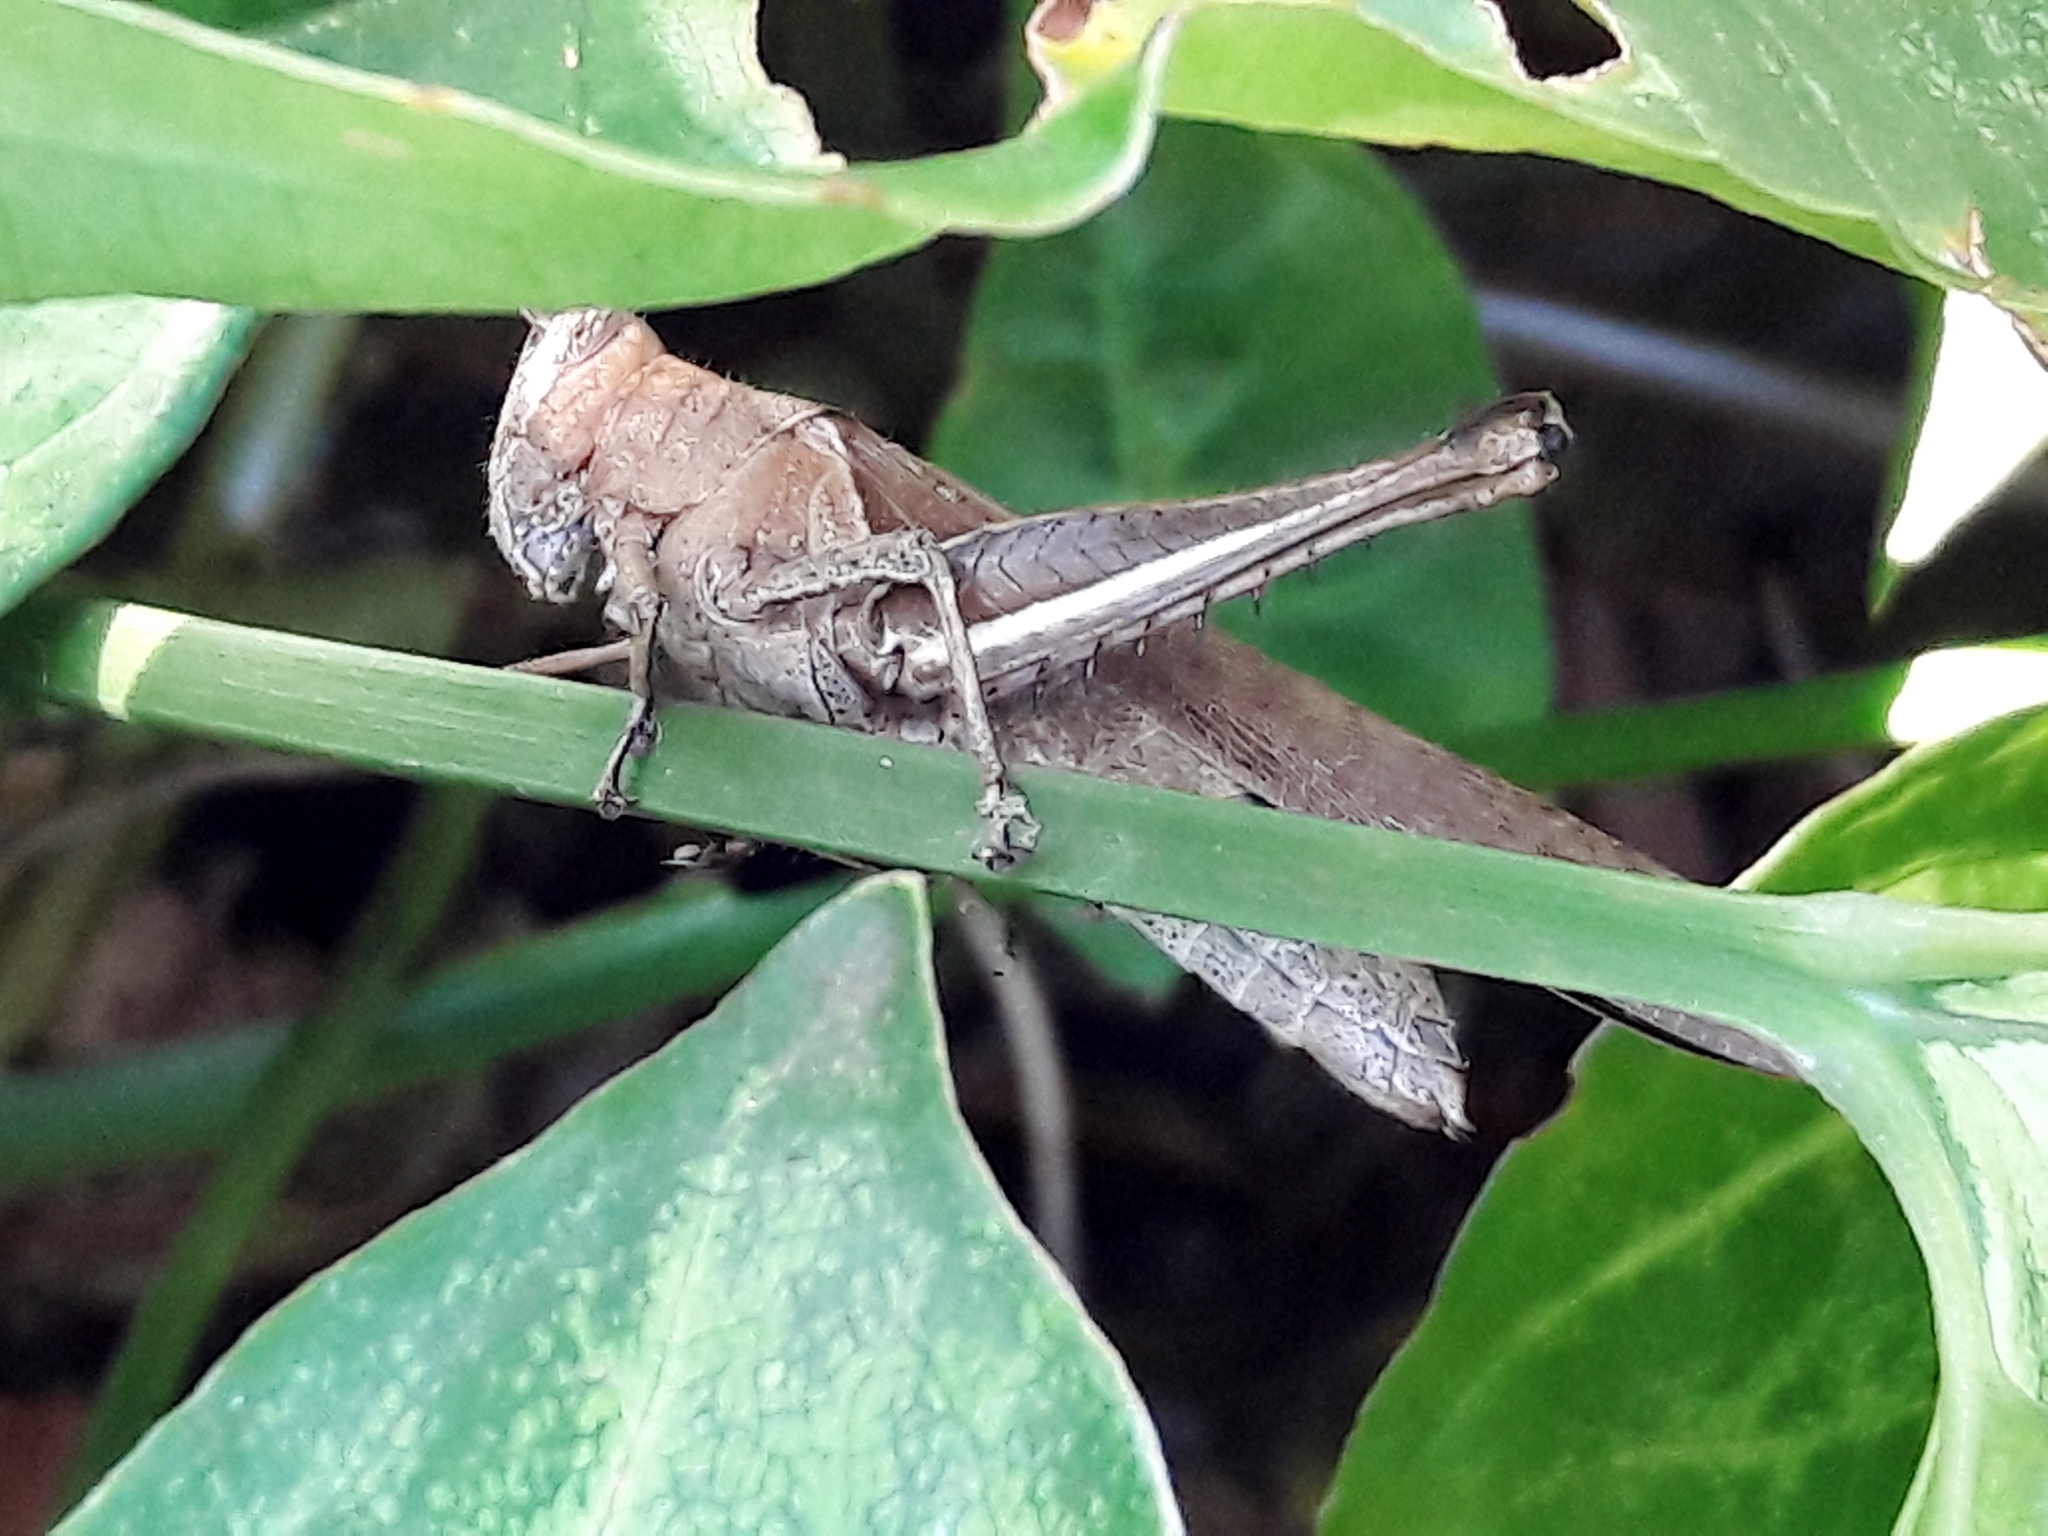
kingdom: Animalia
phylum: Arthropoda
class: Insecta
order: Orthoptera
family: Acrididae
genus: Abracris
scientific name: Abracris flavolineata
